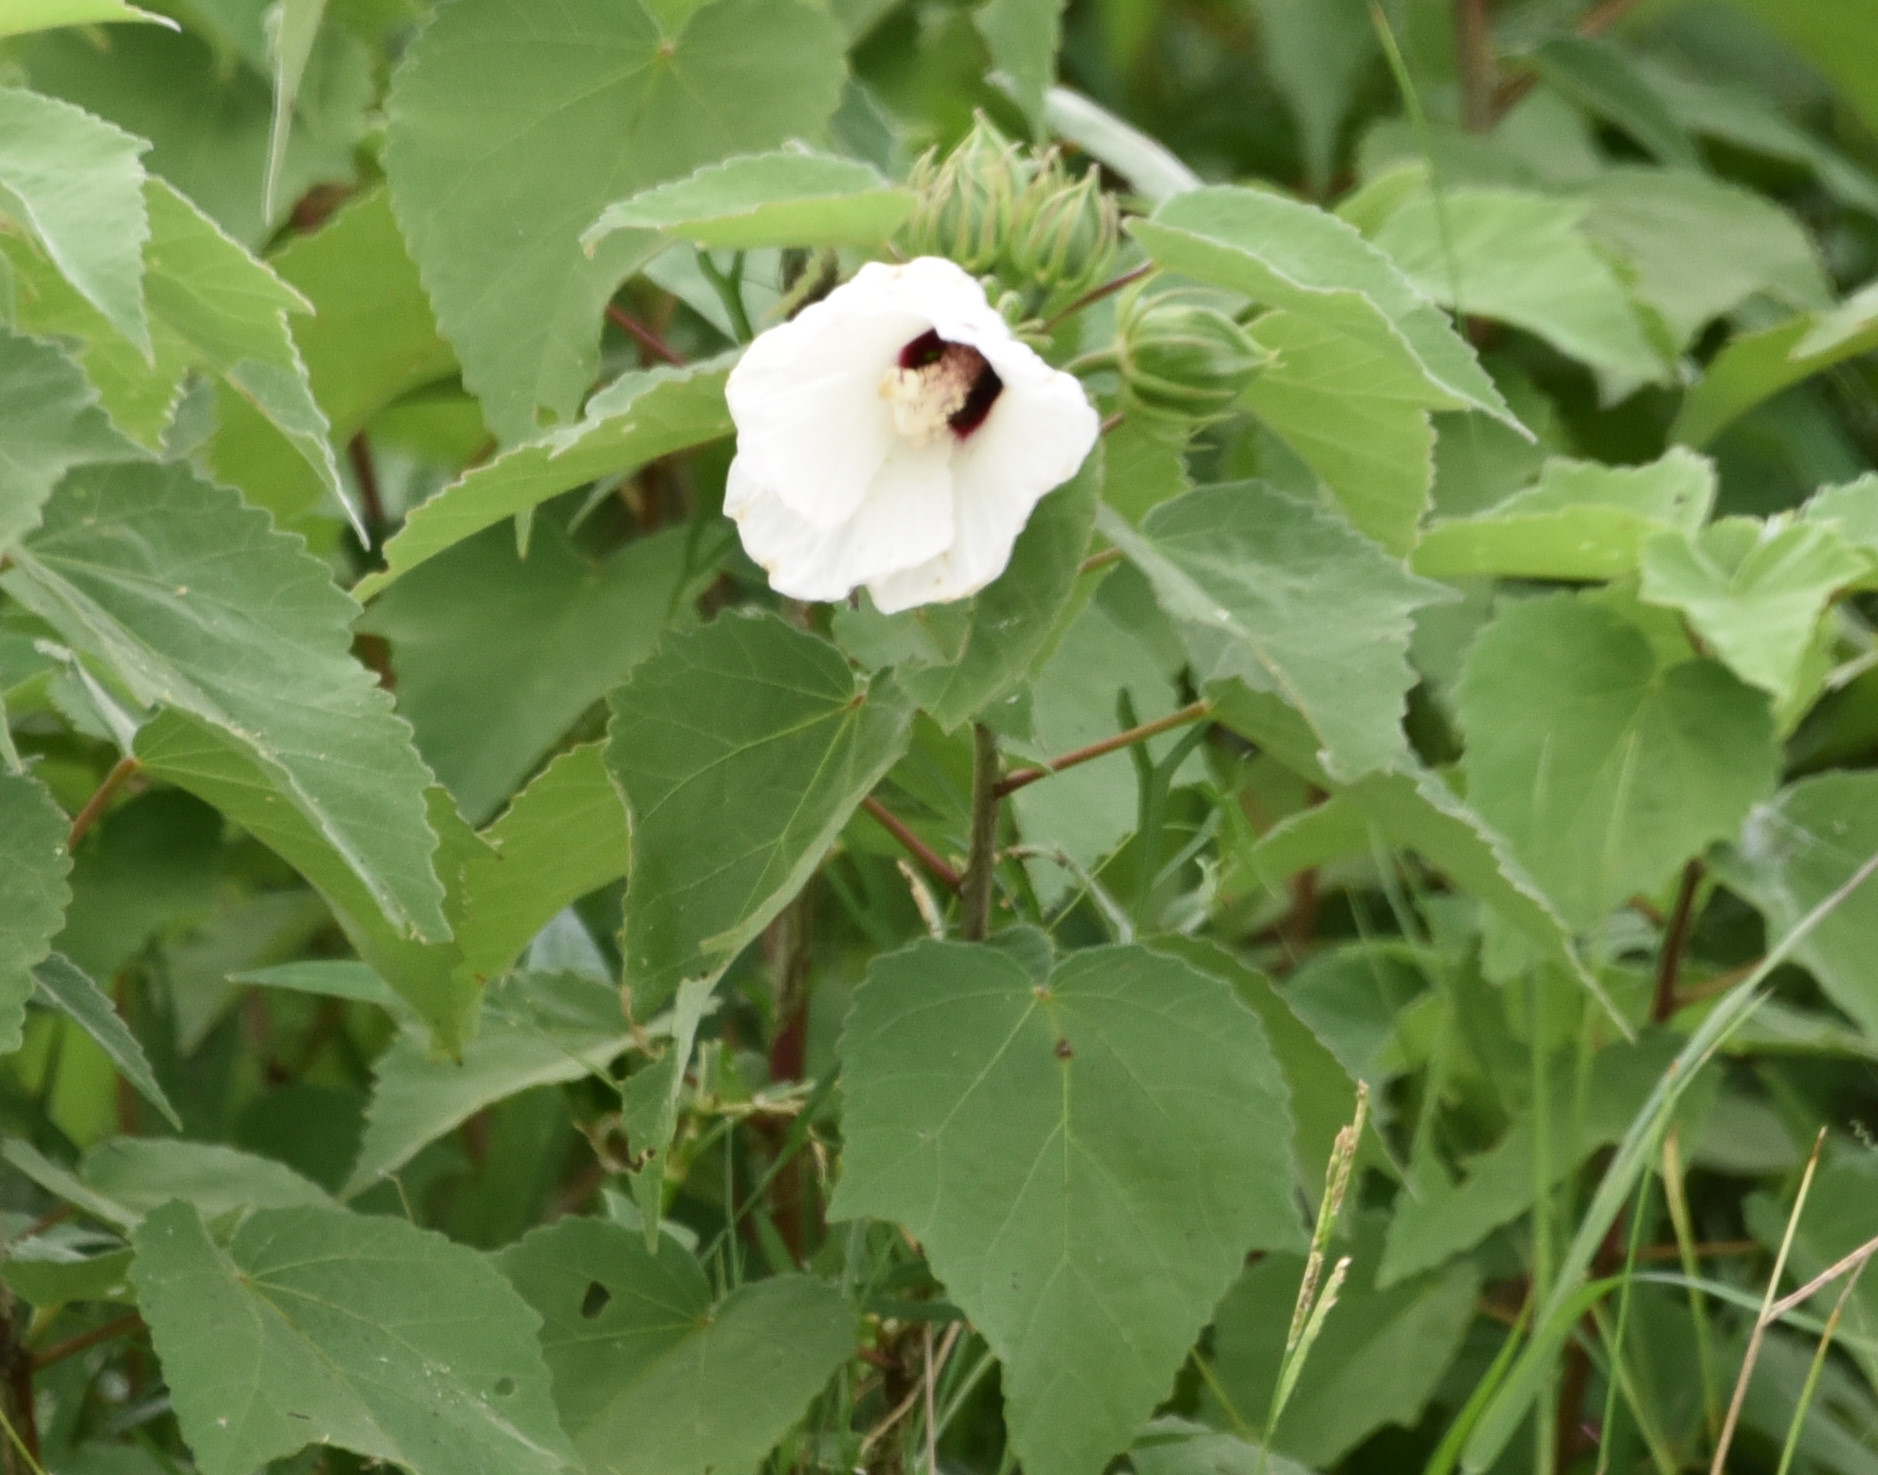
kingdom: Plantae
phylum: Tracheophyta
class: Magnoliopsida
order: Malvales
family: Malvaceae
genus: Hibiscus
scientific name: Hibiscus moscheutos
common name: Common rose-mallow
